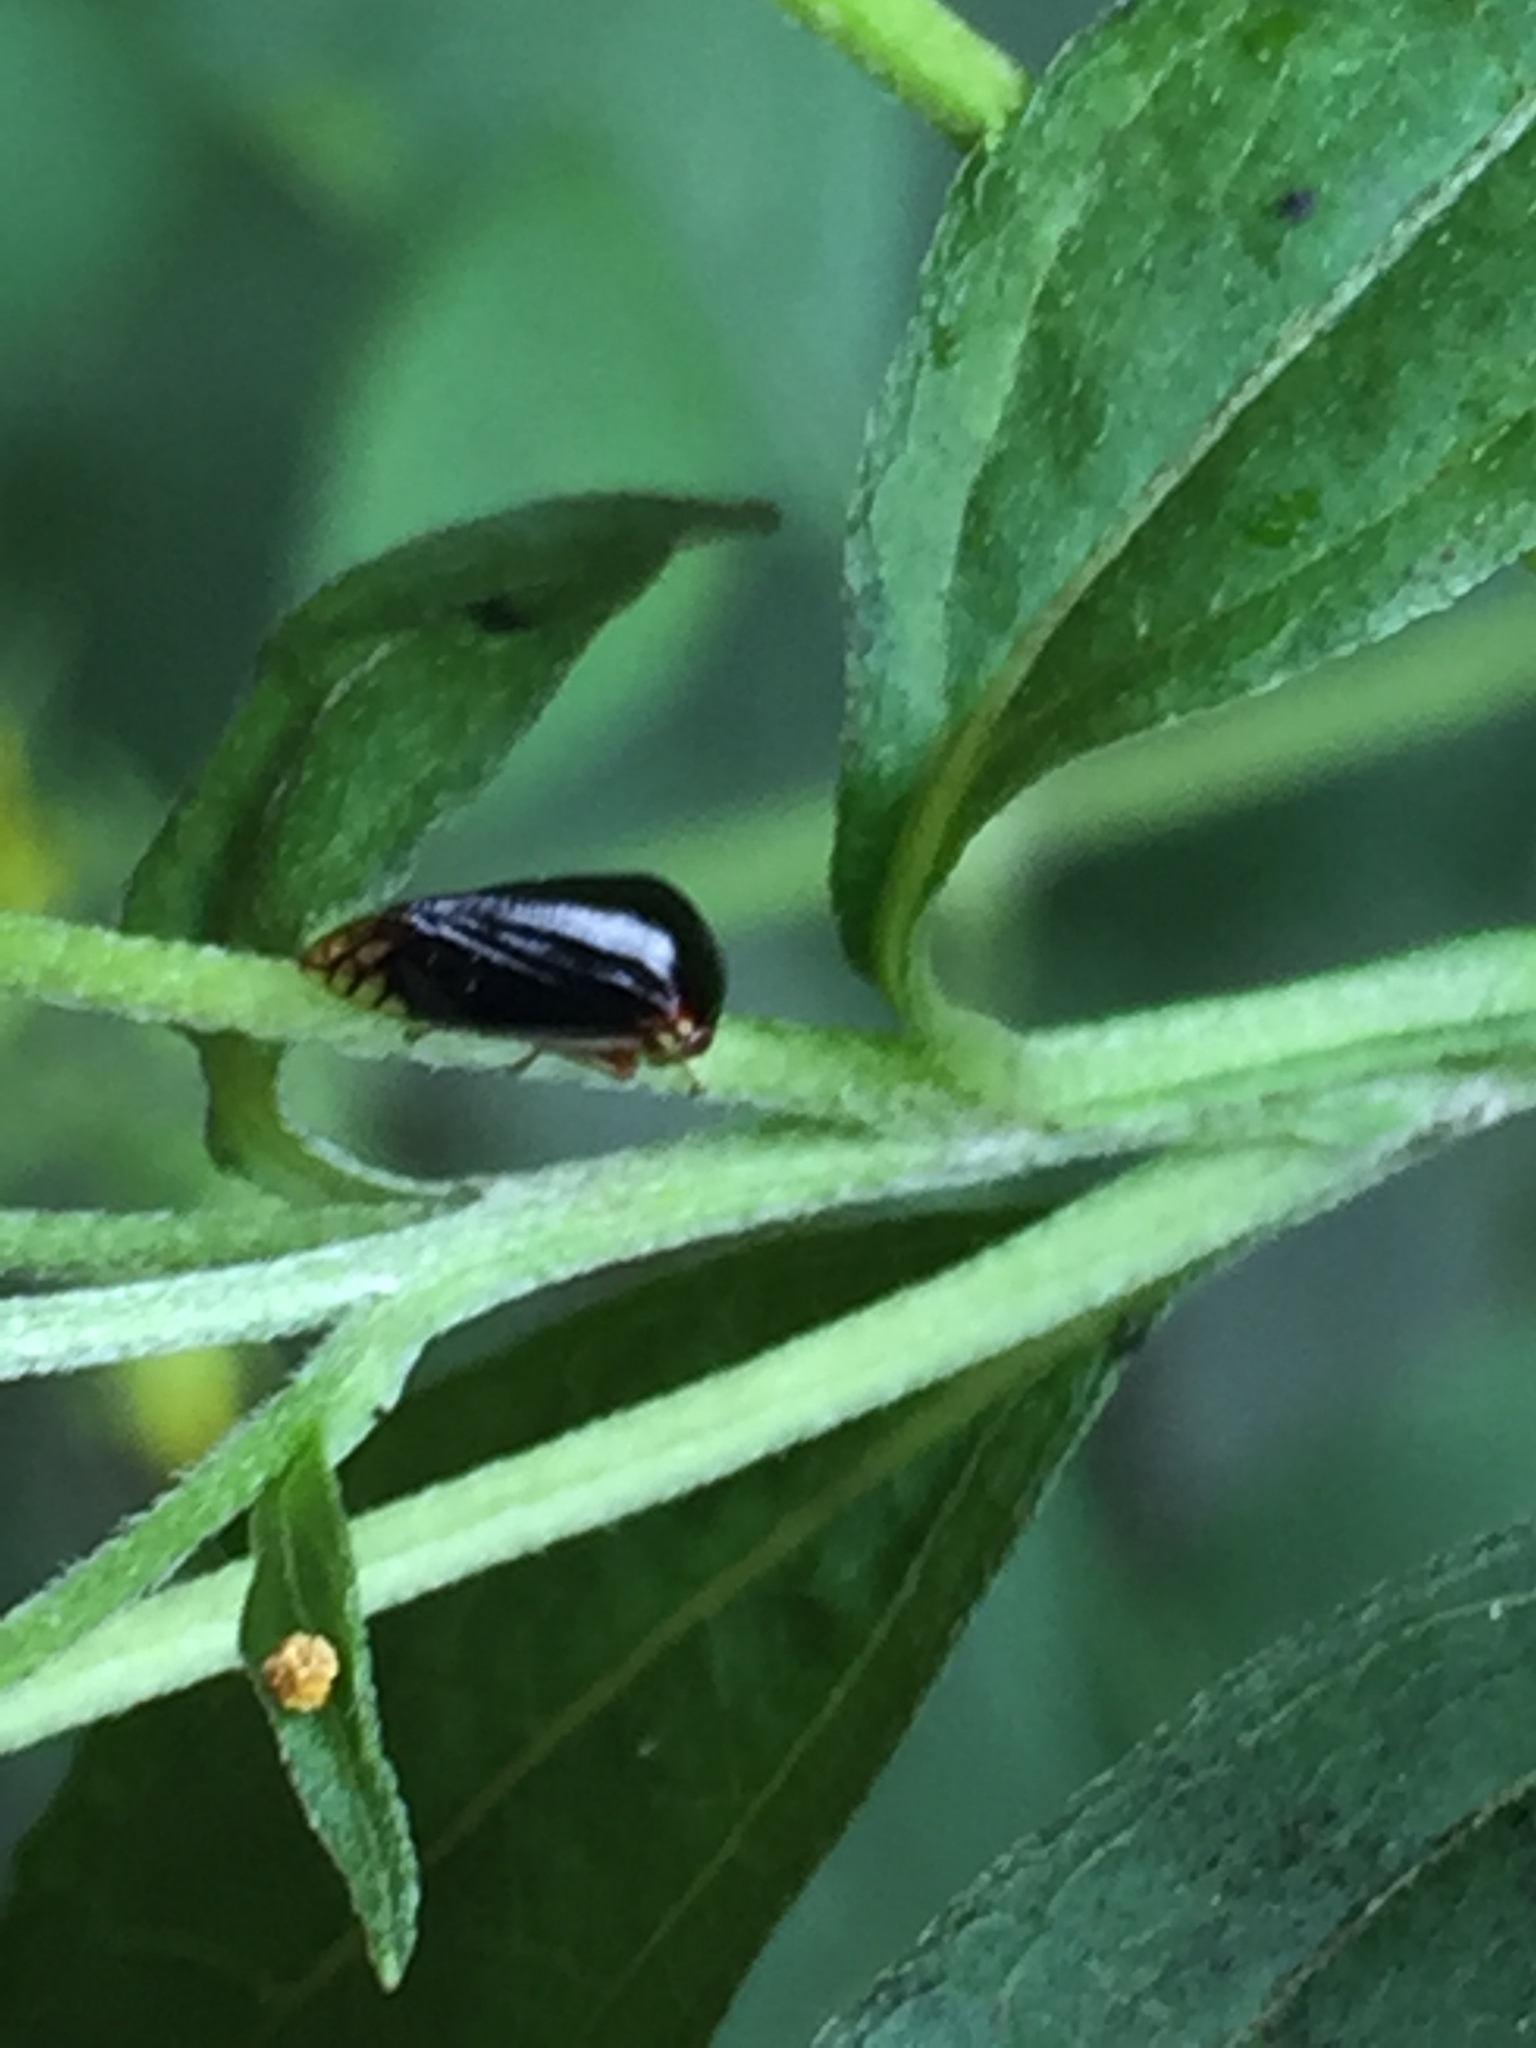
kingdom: Animalia
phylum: Arthropoda
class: Insecta
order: Hemiptera
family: Membracidae
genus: Acutalis
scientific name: Acutalis tartarea
